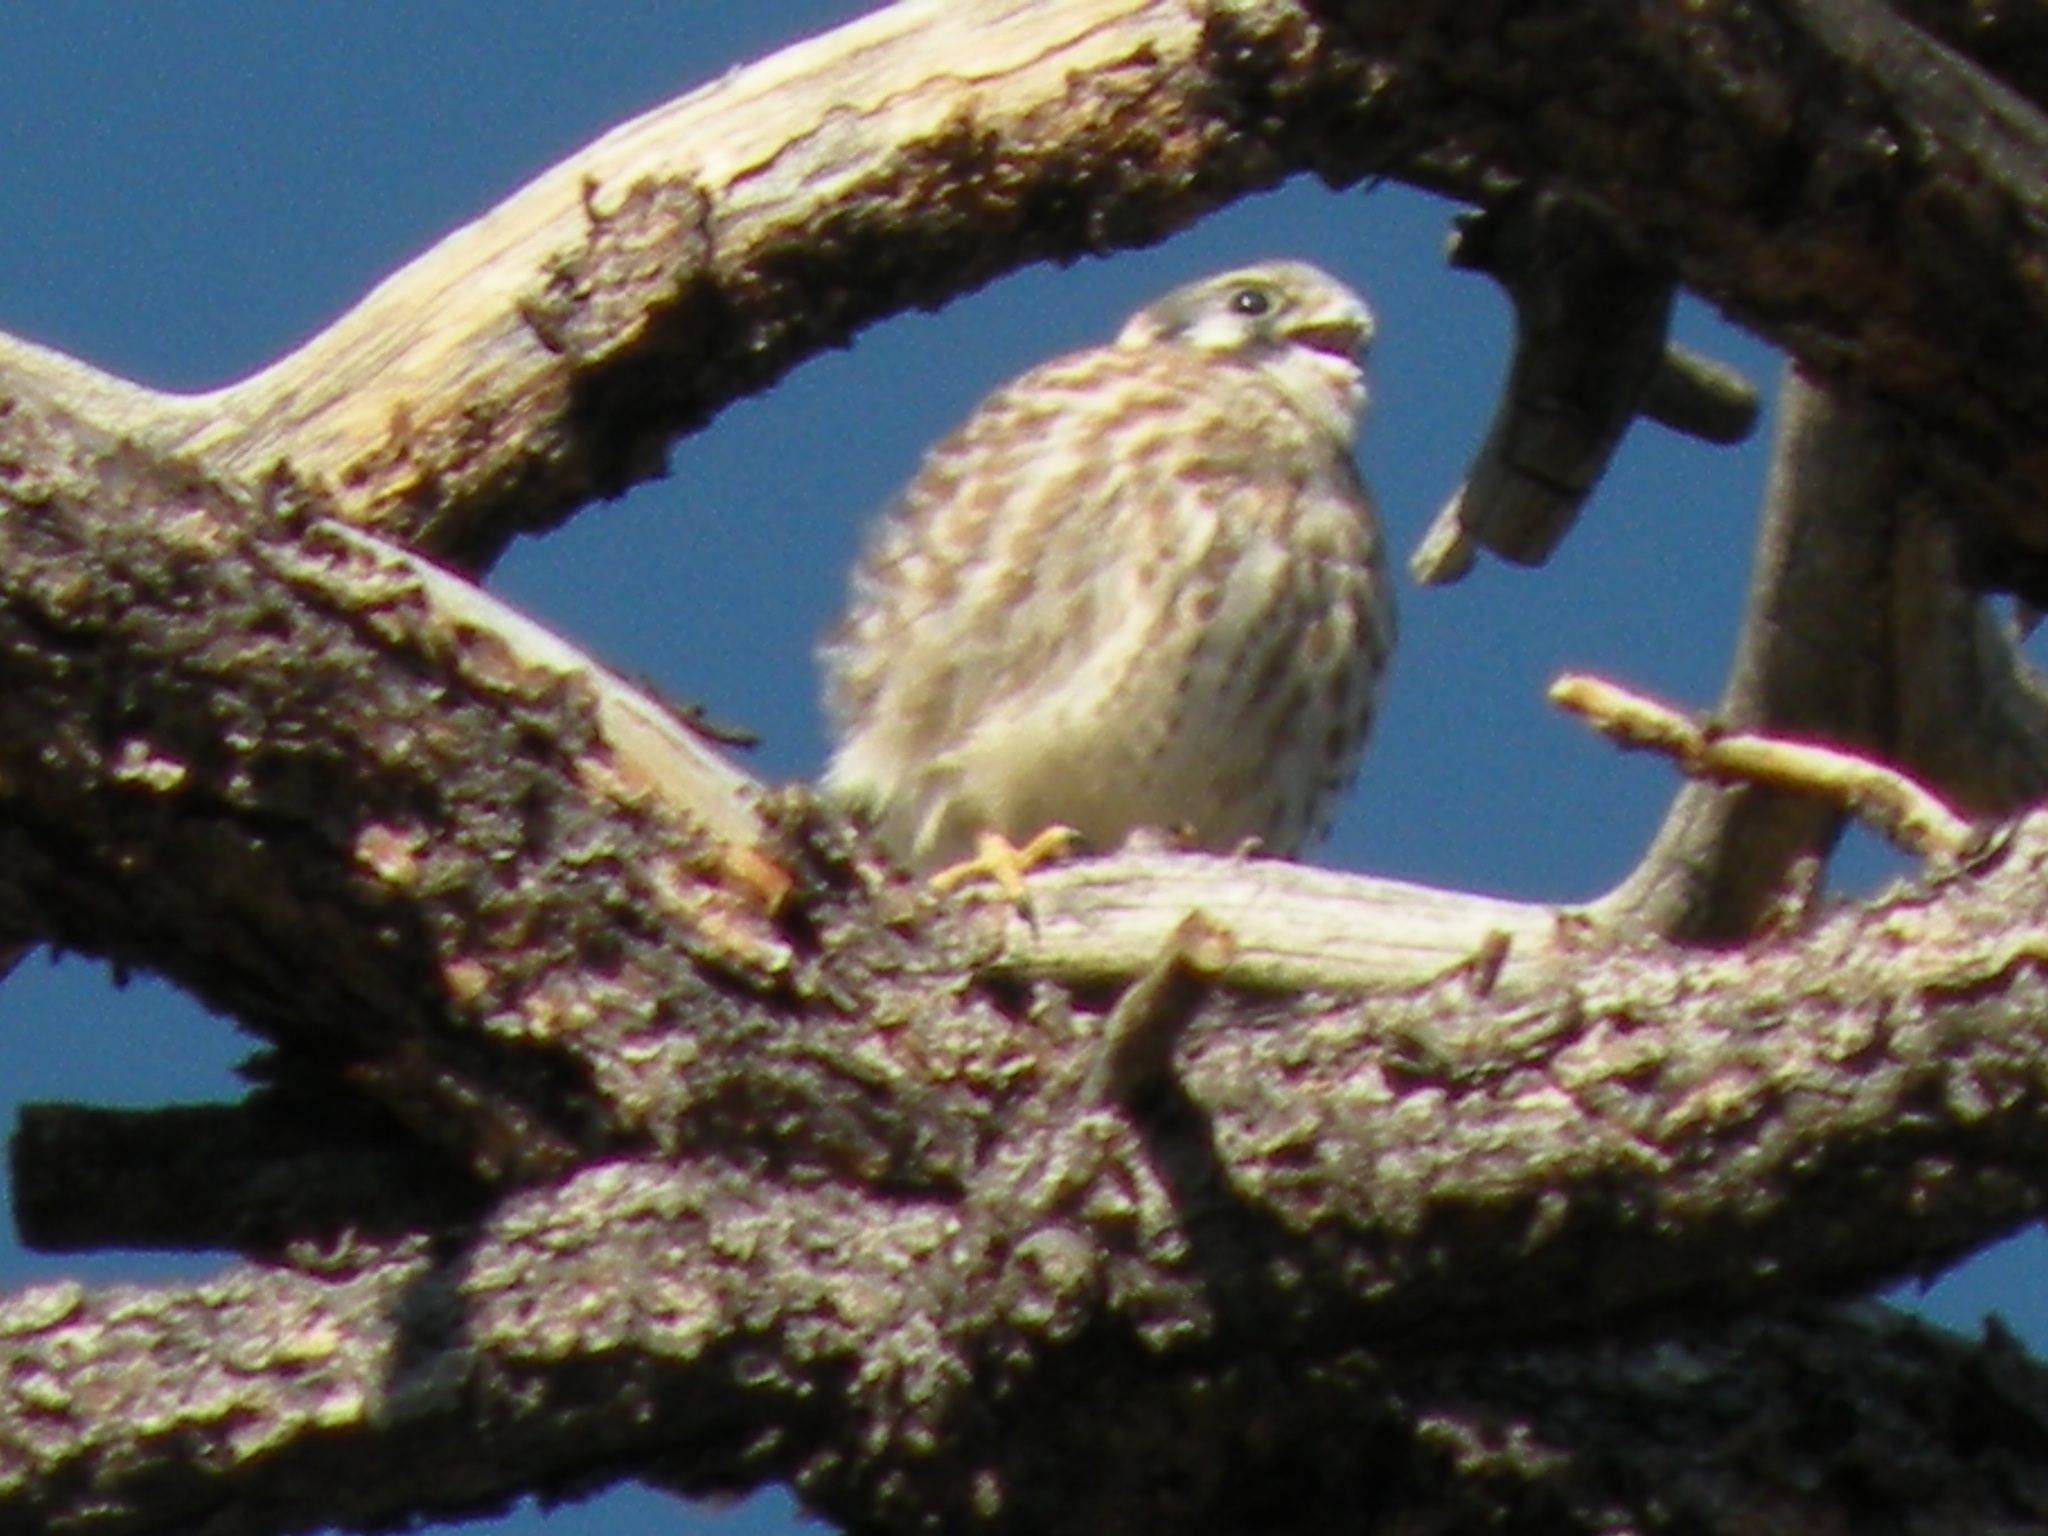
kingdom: Animalia
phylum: Chordata
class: Aves
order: Falconiformes
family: Falconidae
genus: Falco
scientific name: Falco sparverius
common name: American kestrel
